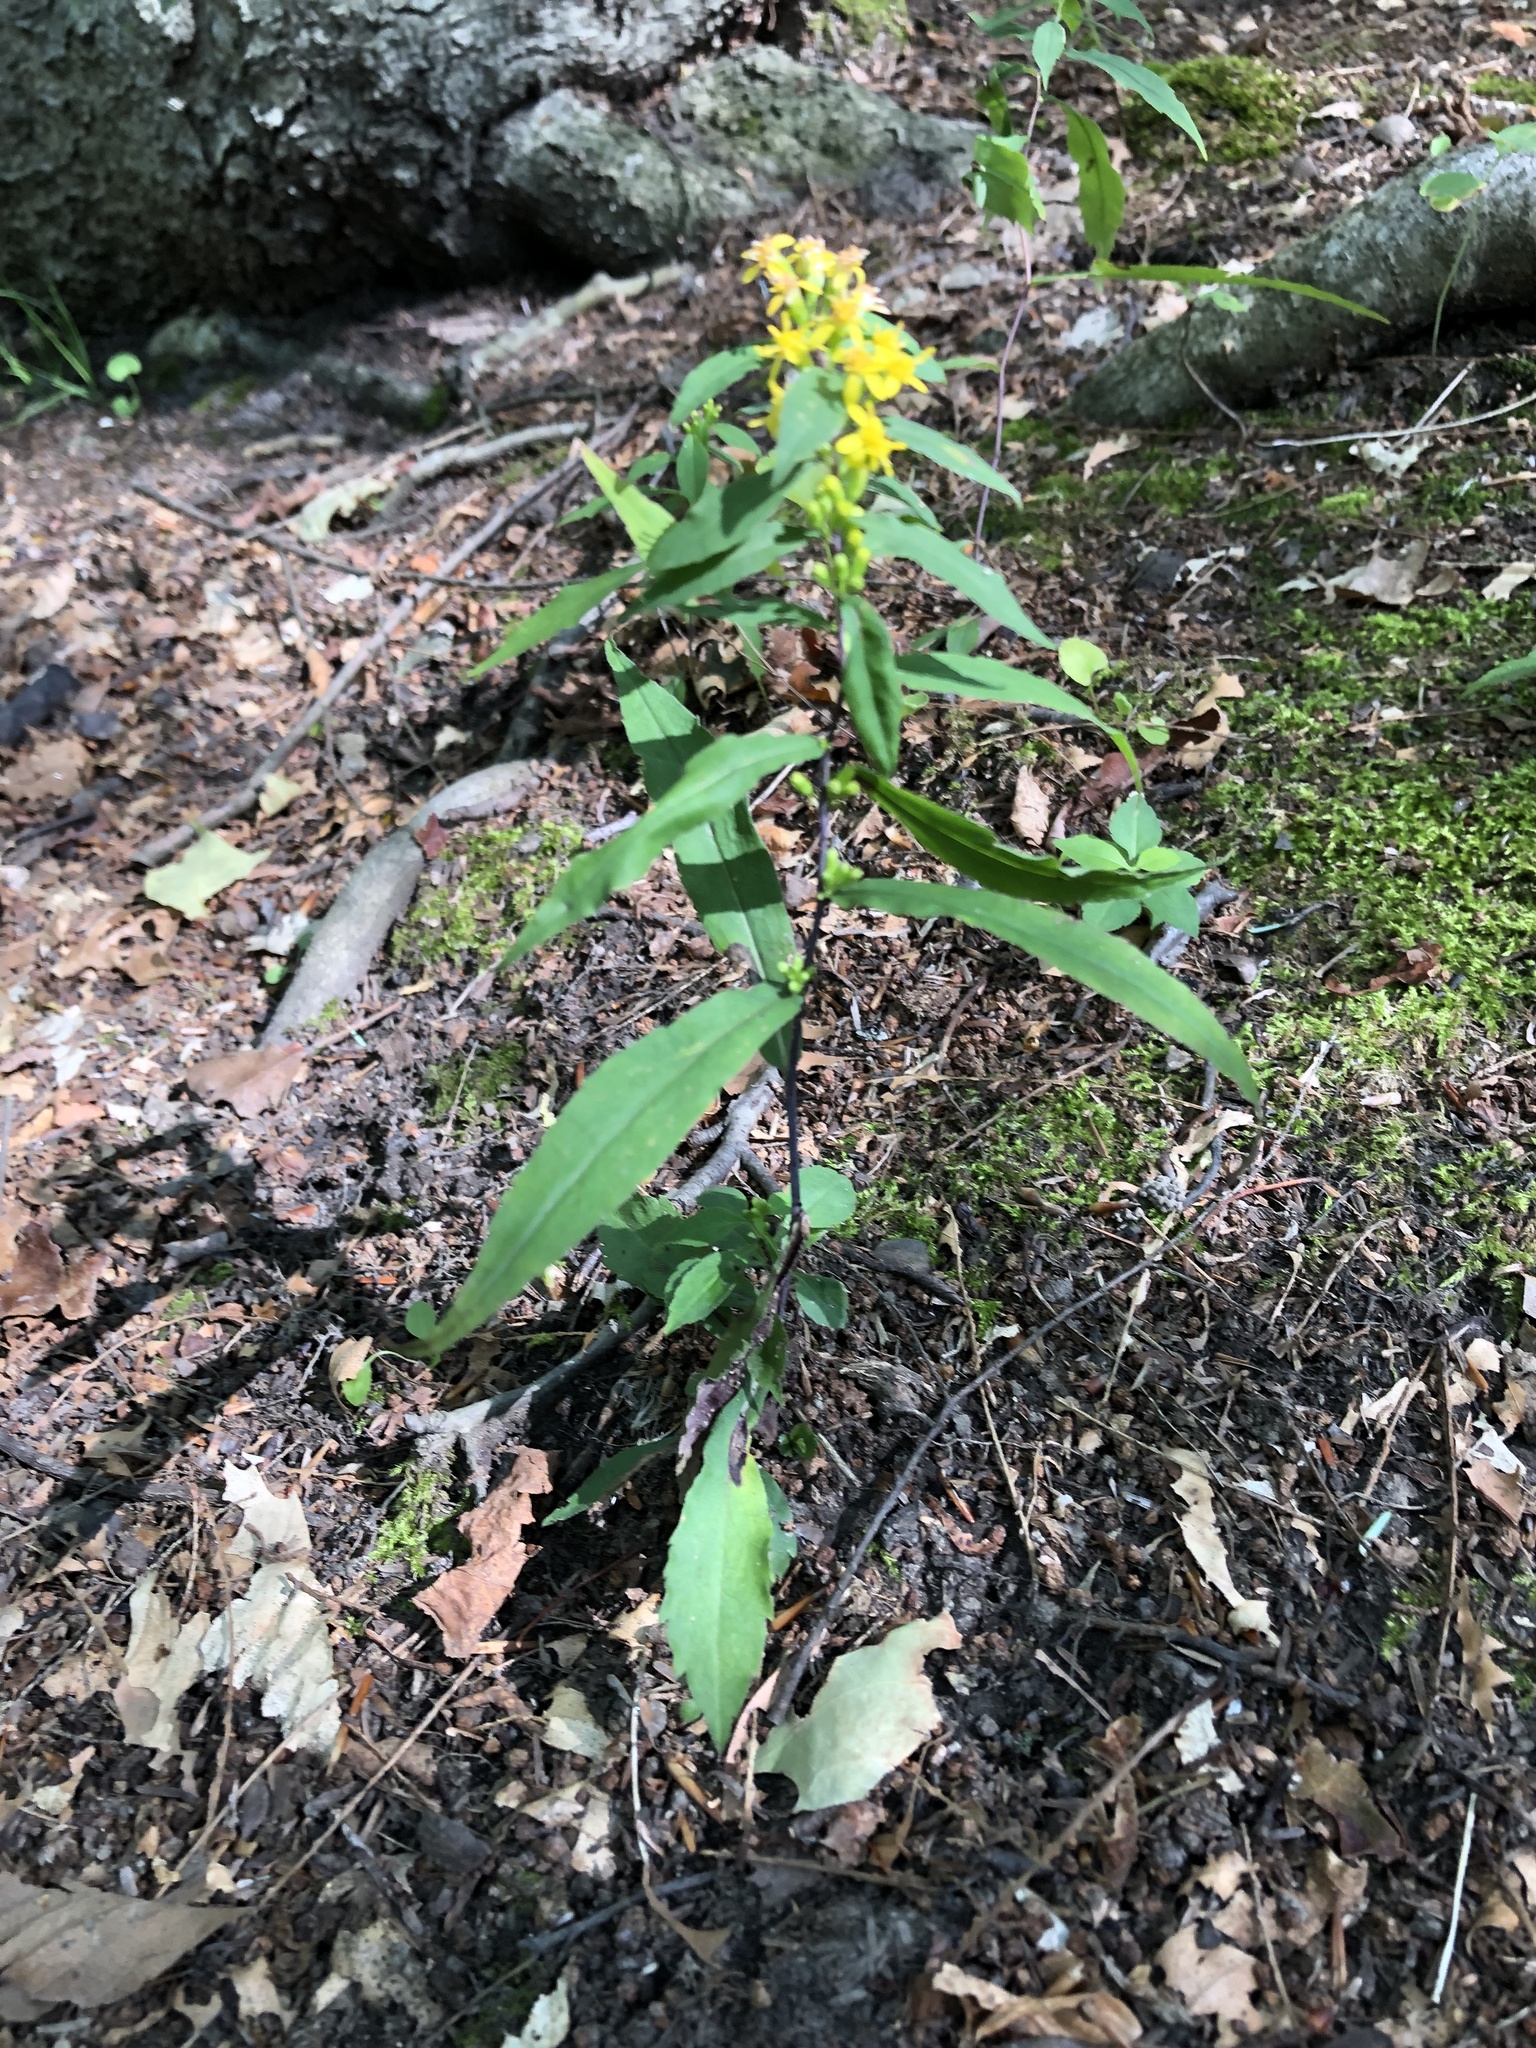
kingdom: Plantae
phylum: Tracheophyta
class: Magnoliopsida
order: Asterales
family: Asteraceae
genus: Solidago
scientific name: Solidago caesia
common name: Woodland goldenrod
